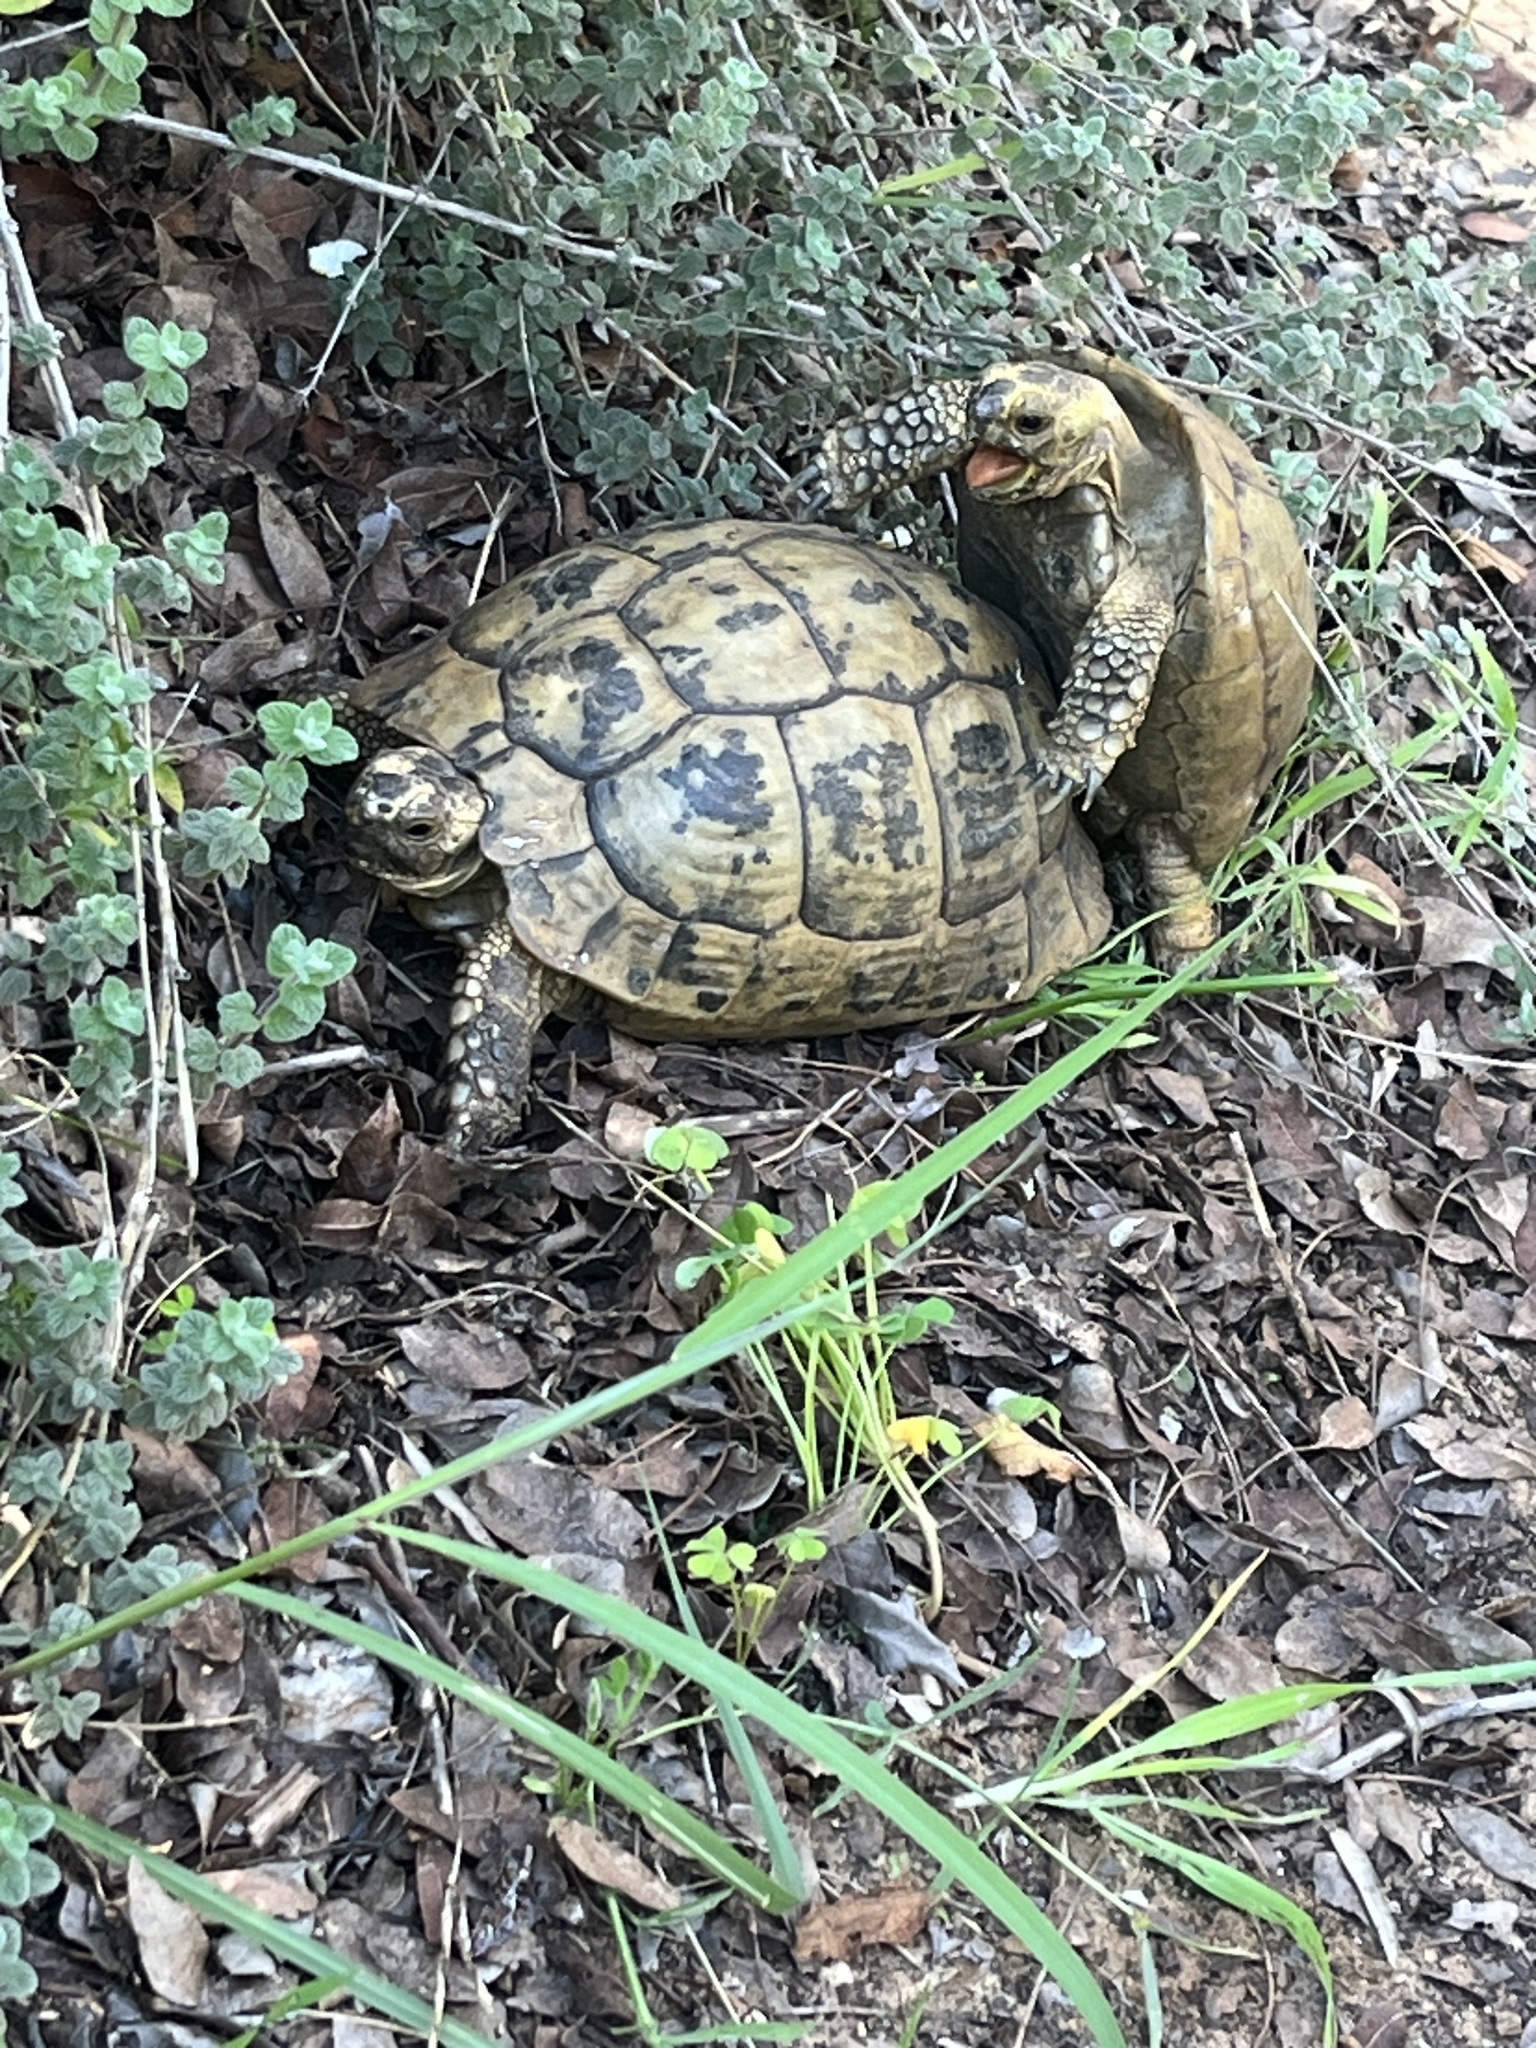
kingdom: Animalia
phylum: Chordata
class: Testudines
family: Testudinidae
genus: Testudo
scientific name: Testudo graeca
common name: Common tortoise
